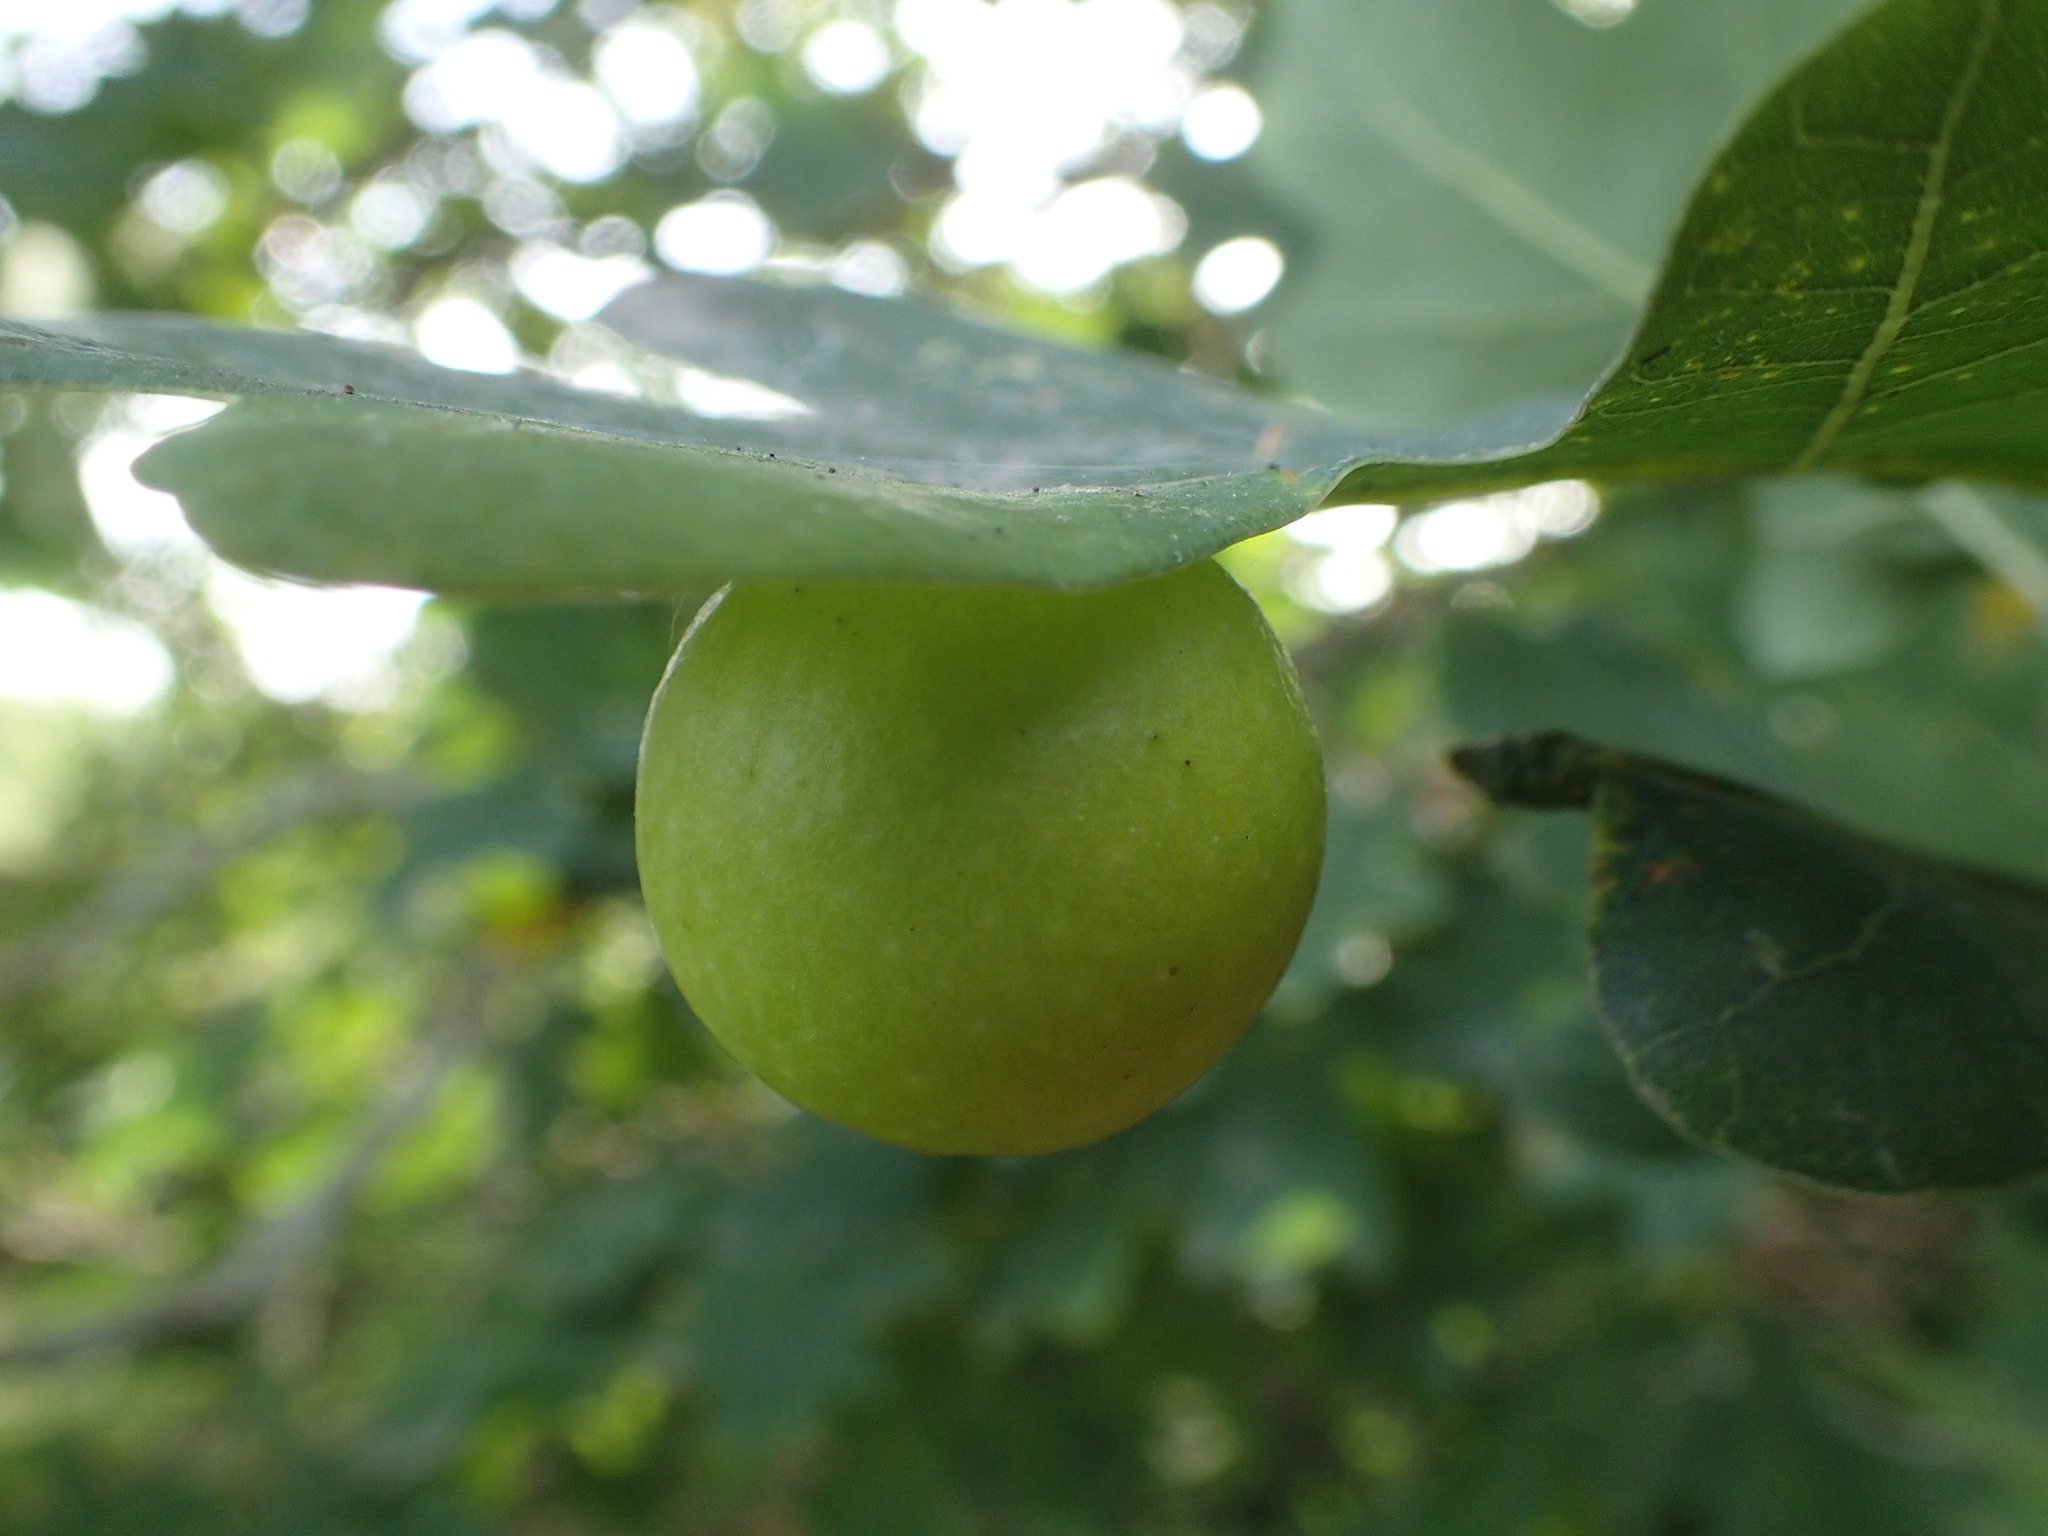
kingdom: Animalia
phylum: Arthropoda
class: Insecta
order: Hymenoptera
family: Cynipidae
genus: Cynips
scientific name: Cynips quercusfolii
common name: Cherry gall
